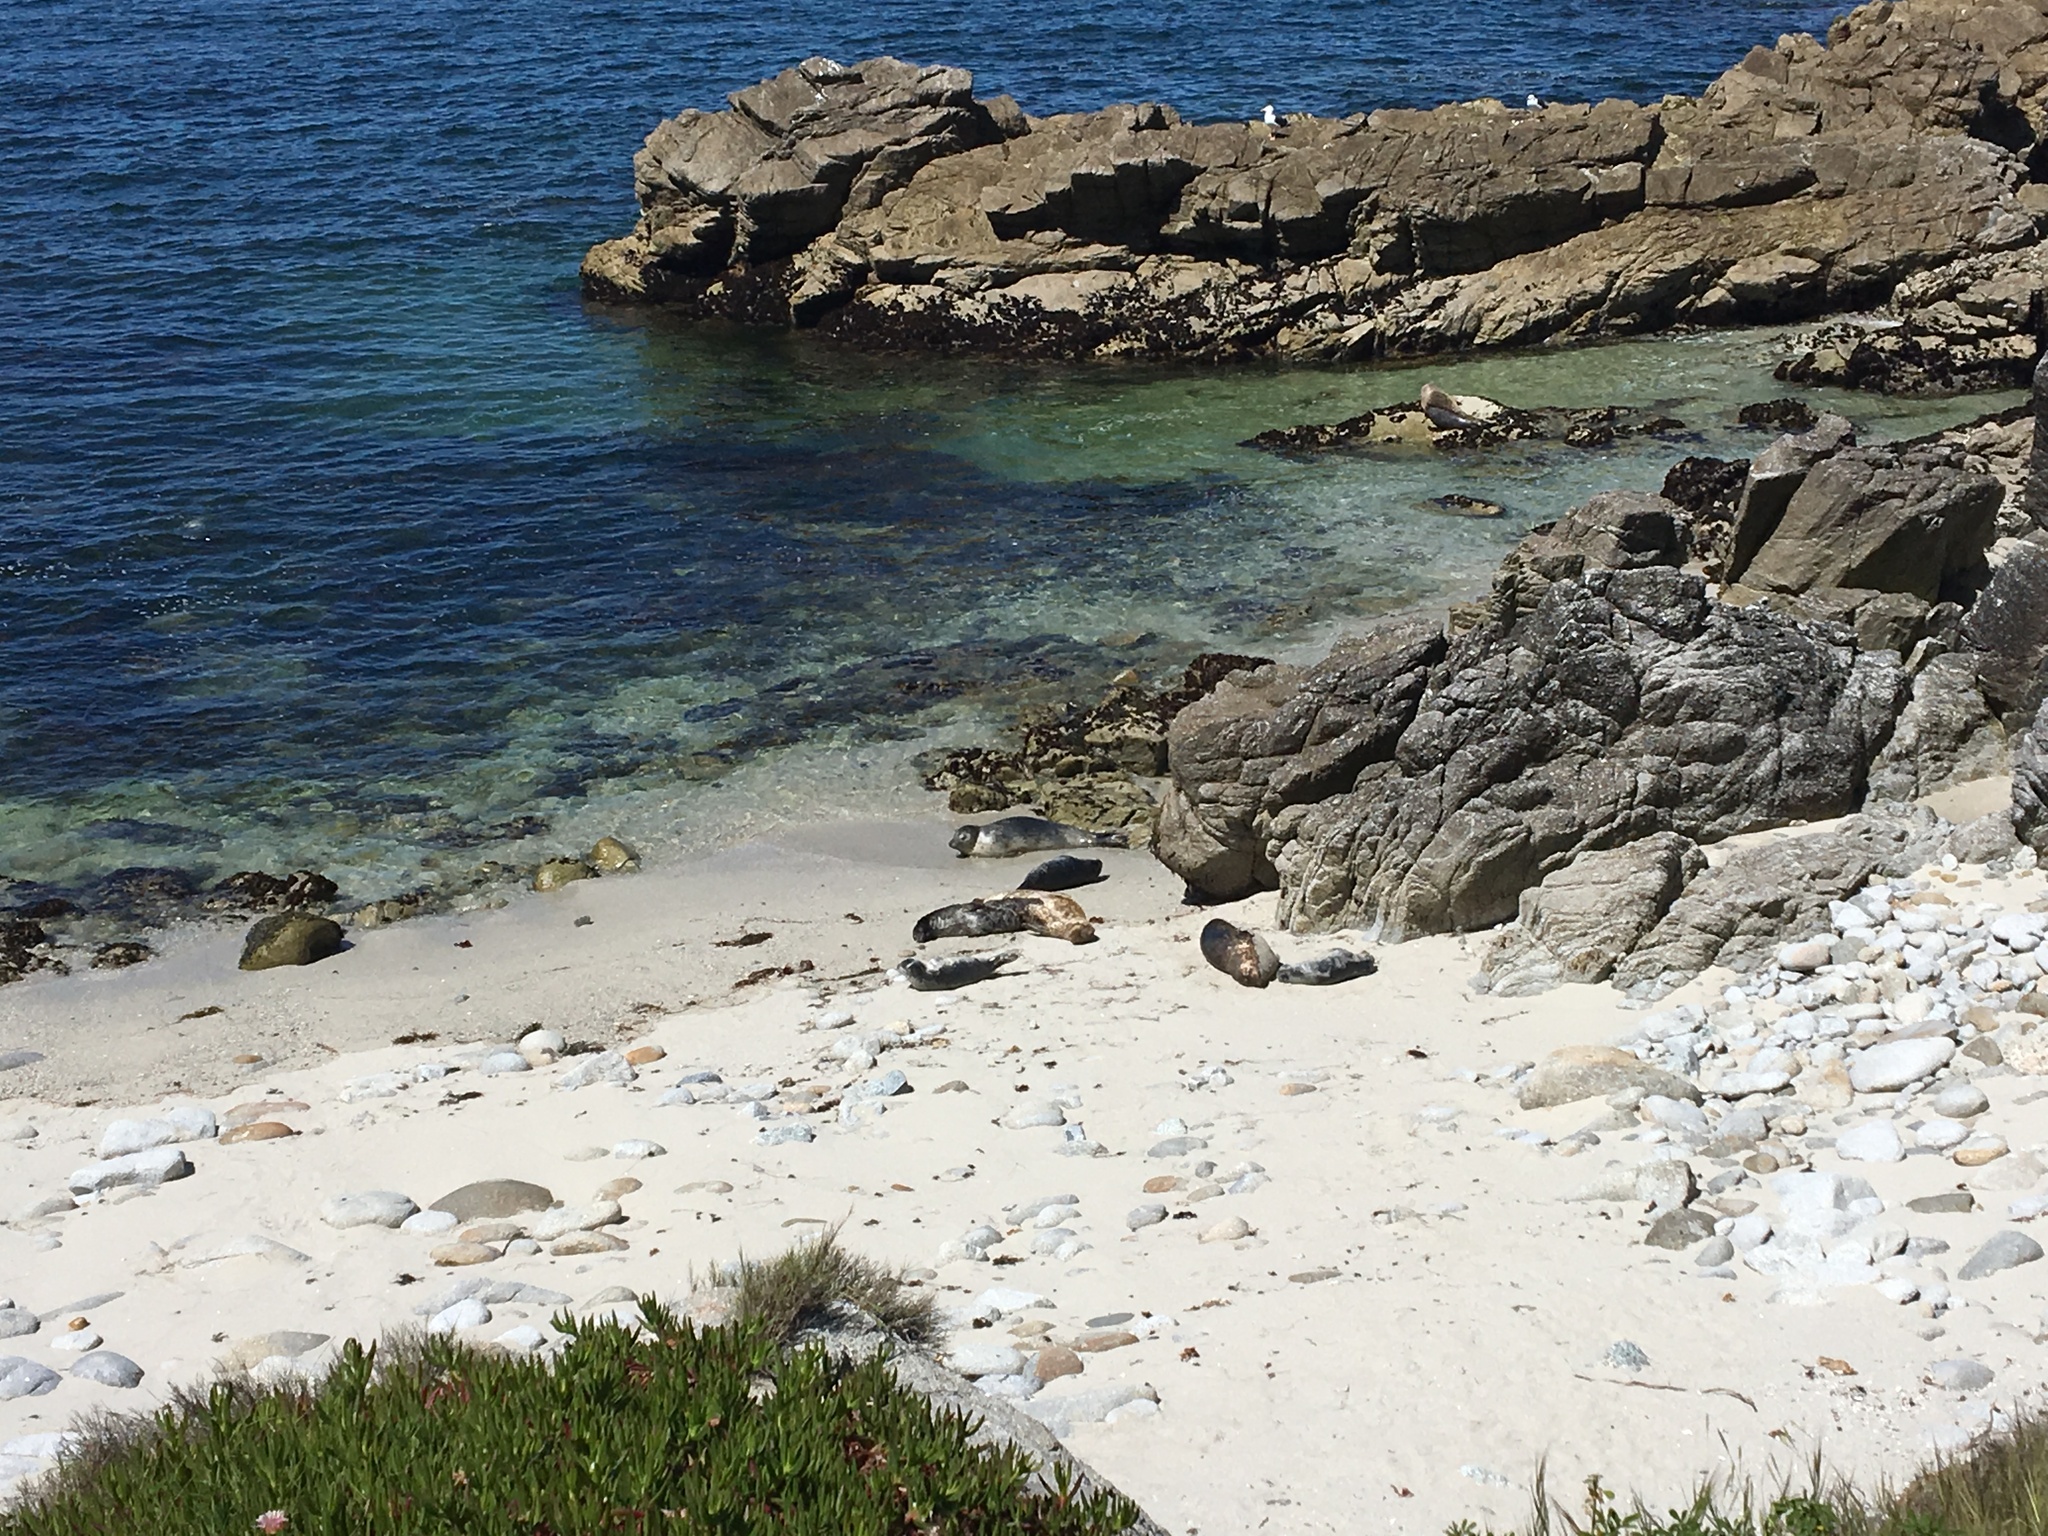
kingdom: Animalia
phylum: Chordata
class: Mammalia
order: Carnivora
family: Phocidae
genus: Phoca
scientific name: Phoca vitulina
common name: Harbor seal
